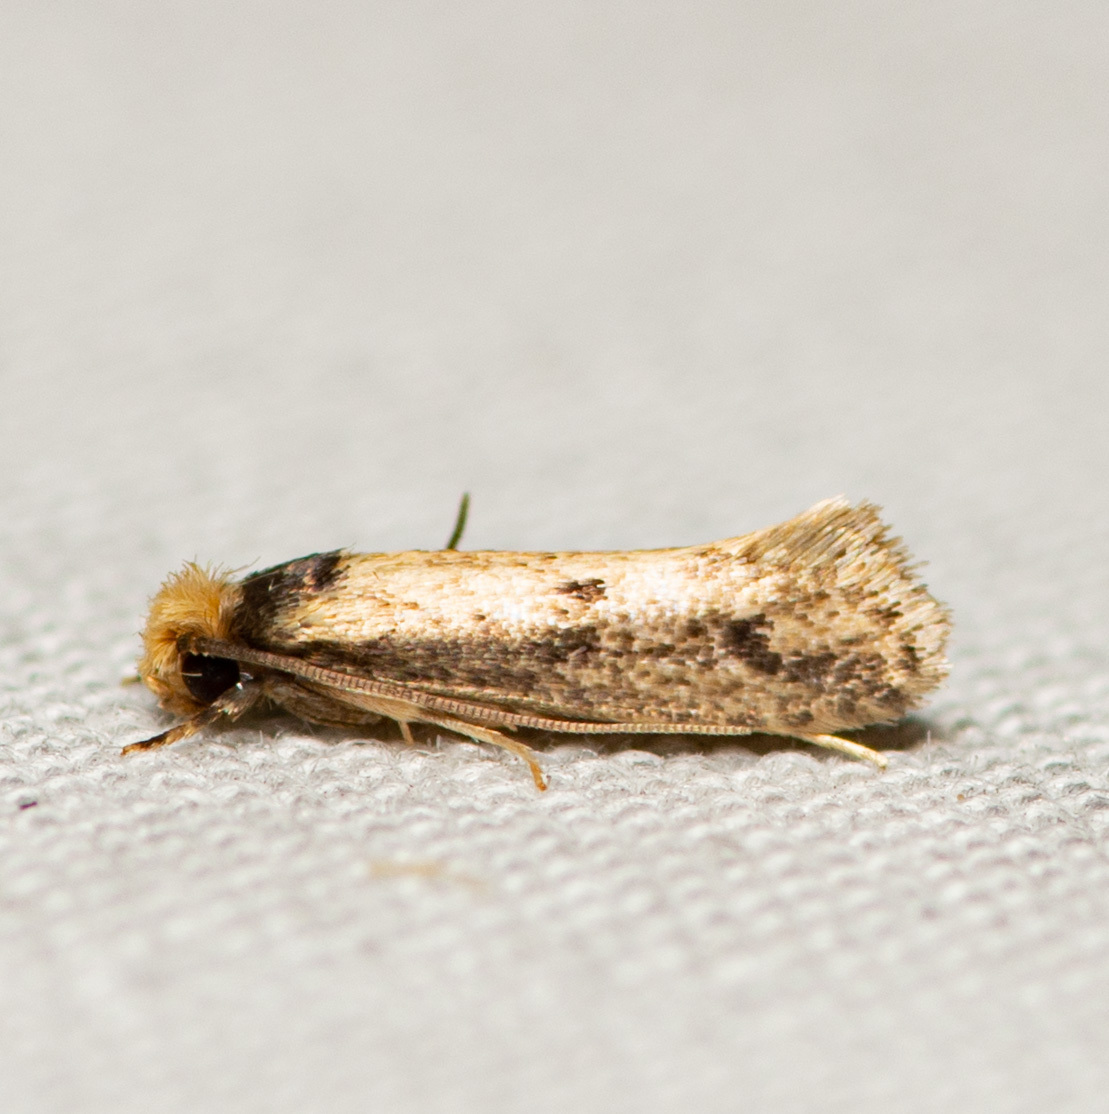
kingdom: Animalia
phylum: Arthropoda
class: Insecta
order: Lepidoptera
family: Tineidae
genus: Tinea
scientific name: Tinea apicimaculella
